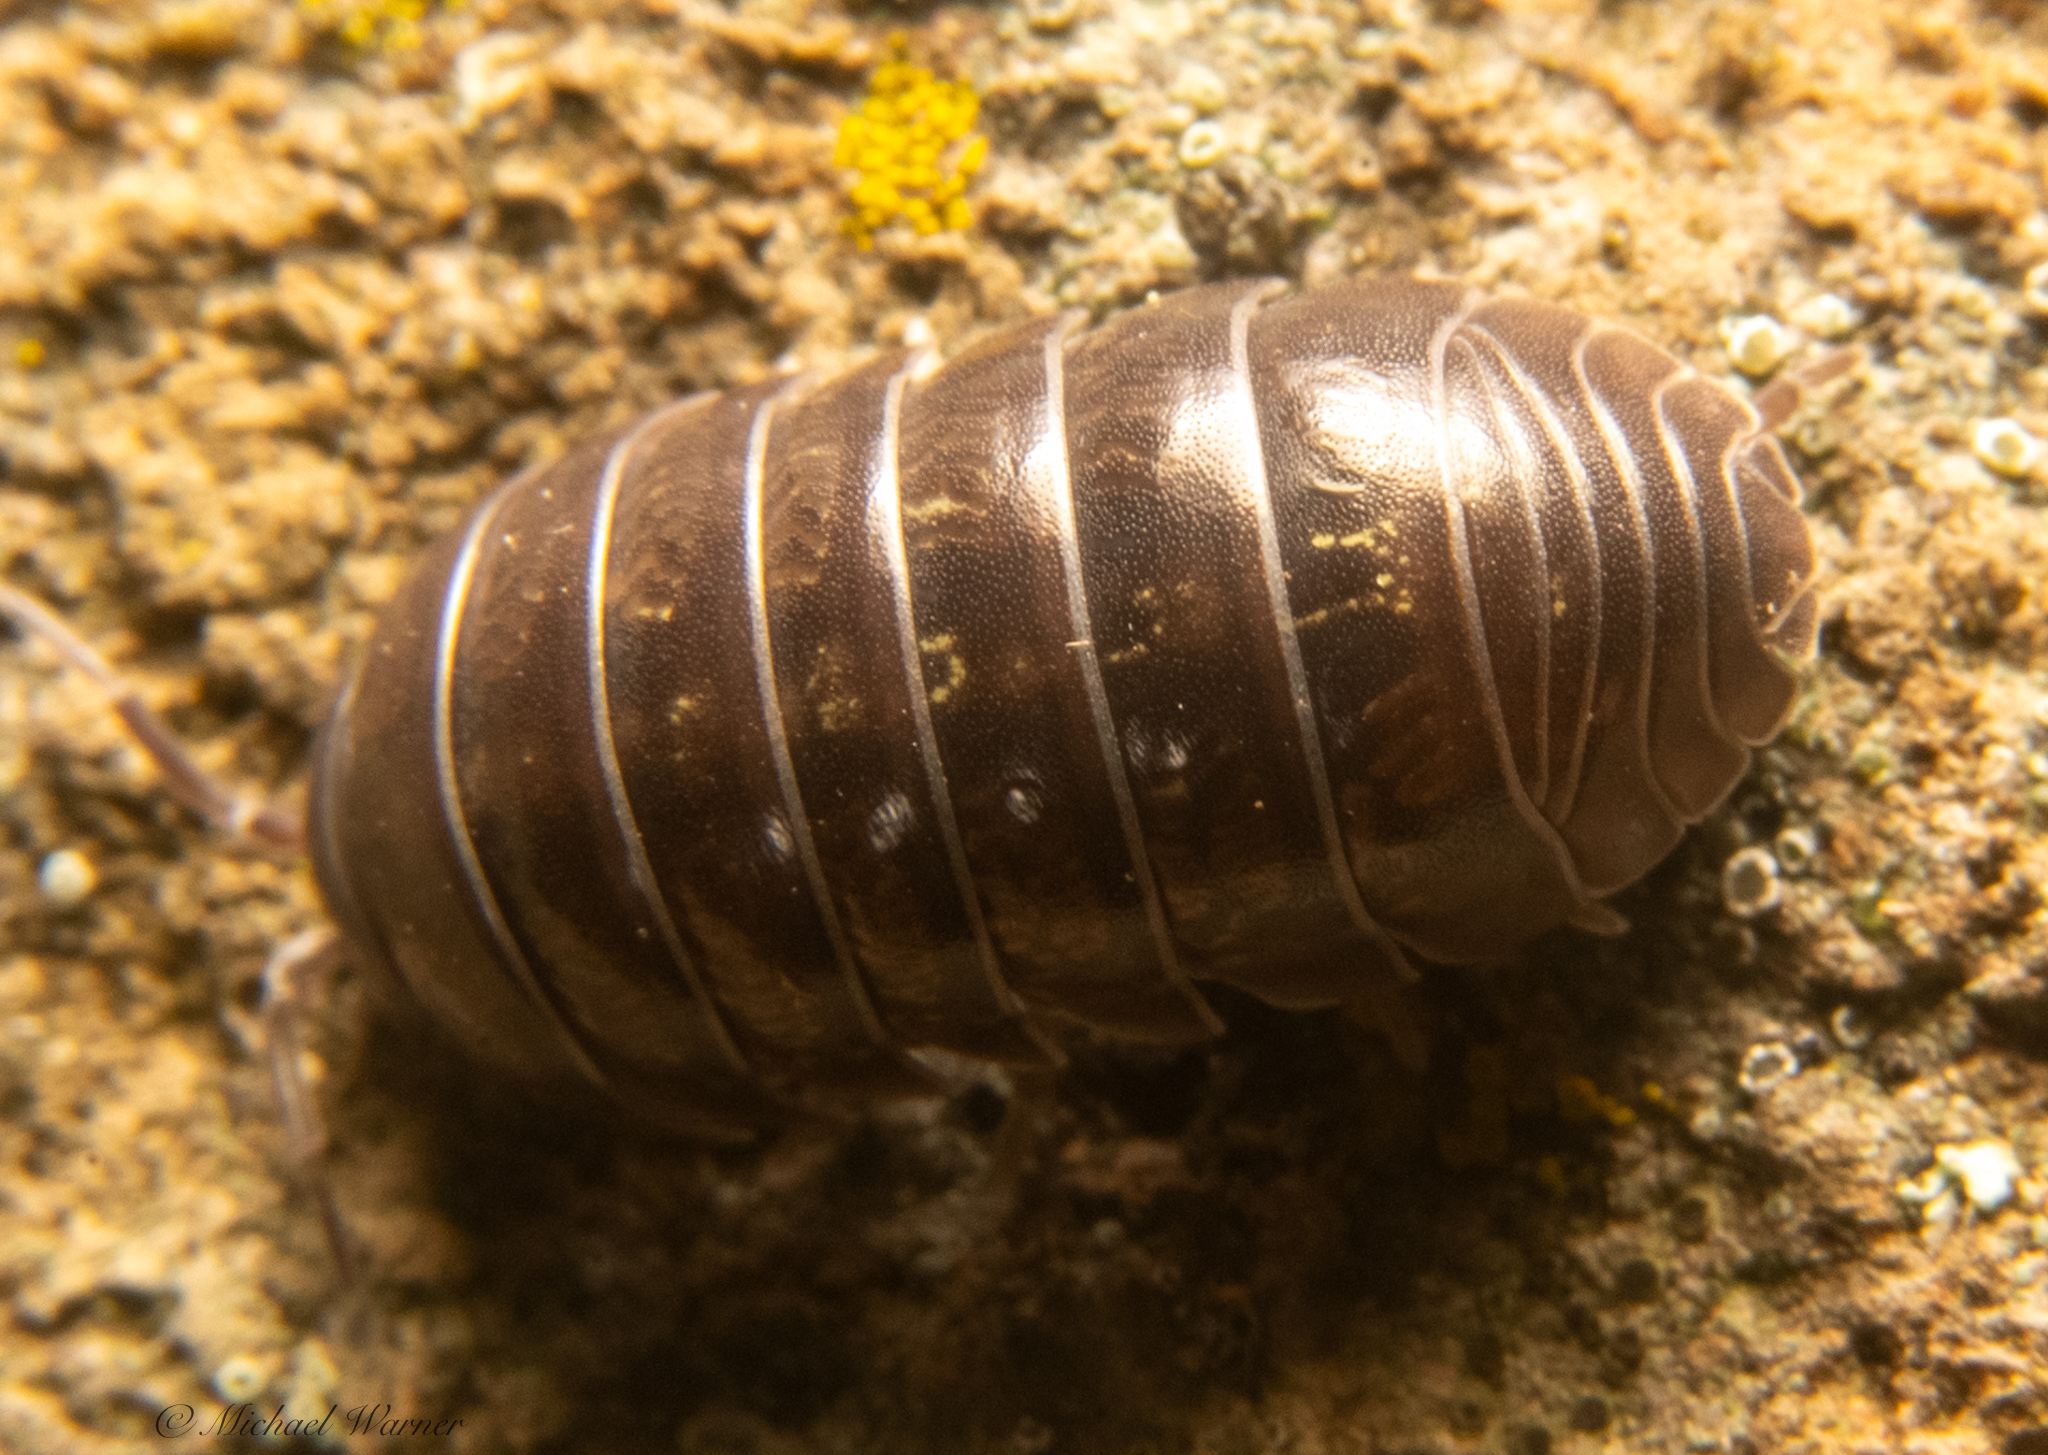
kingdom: Animalia
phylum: Arthropoda
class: Malacostraca
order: Isopoda
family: Armadillidiidae
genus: Armadillidium
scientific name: Armadillidium vulgare
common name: Common pill woodlouse
